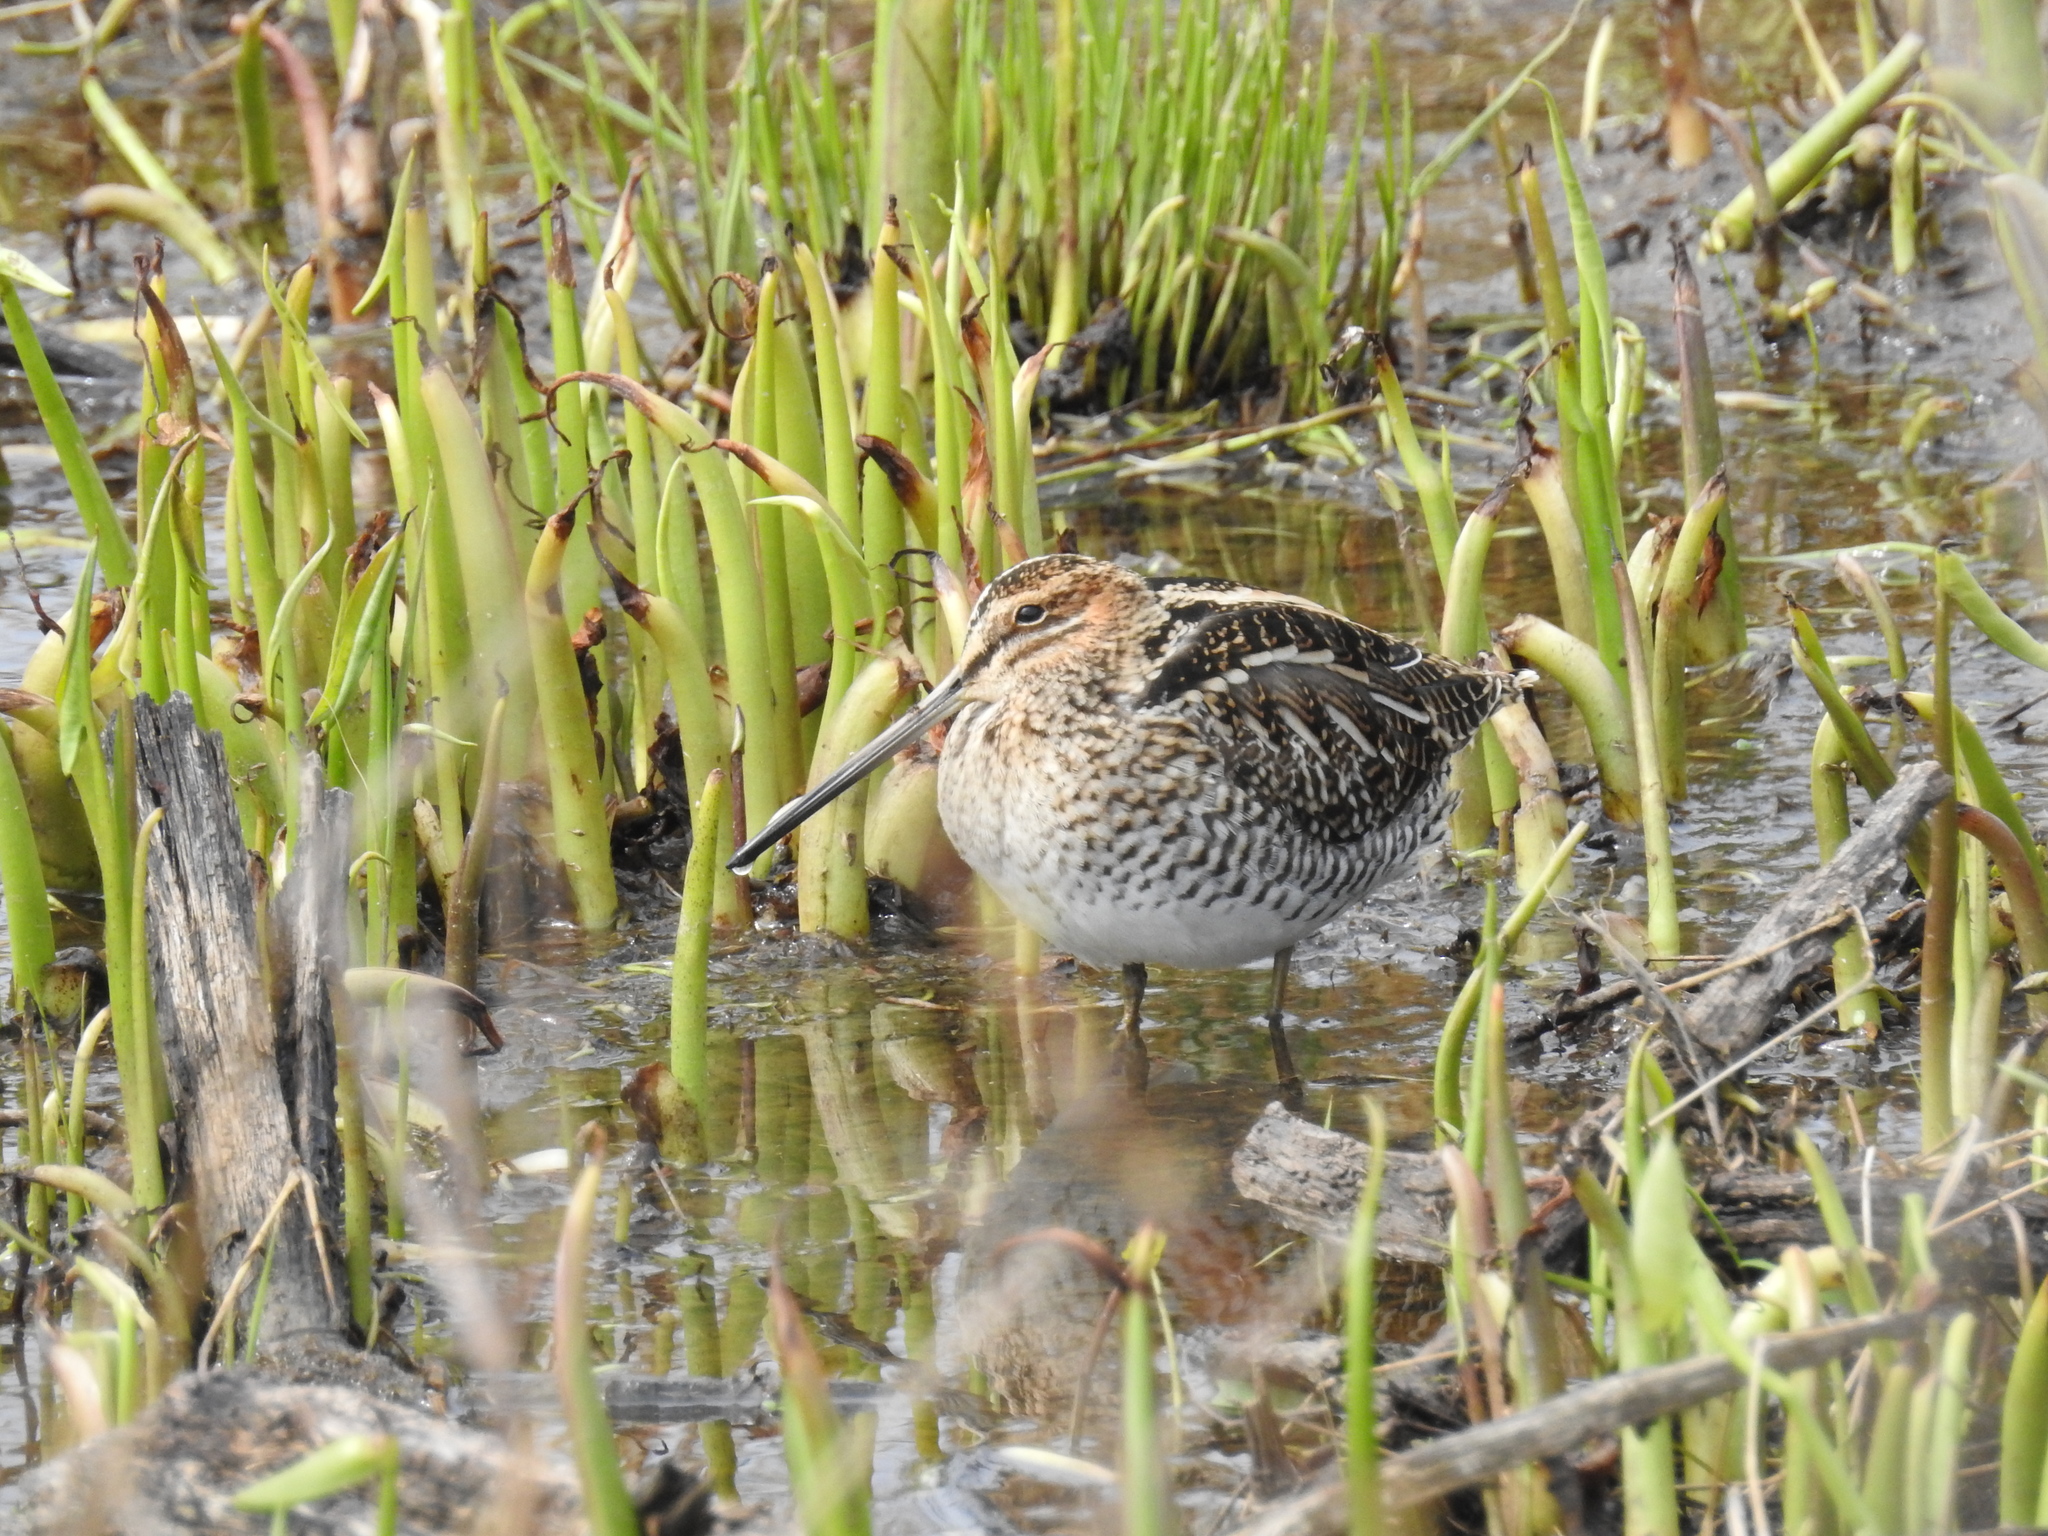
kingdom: Animalia
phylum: Chordata
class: Aves
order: Charadriiformes
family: Scolopacidae
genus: Gallinago
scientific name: Gallinago delicata
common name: Wilson's snipe
